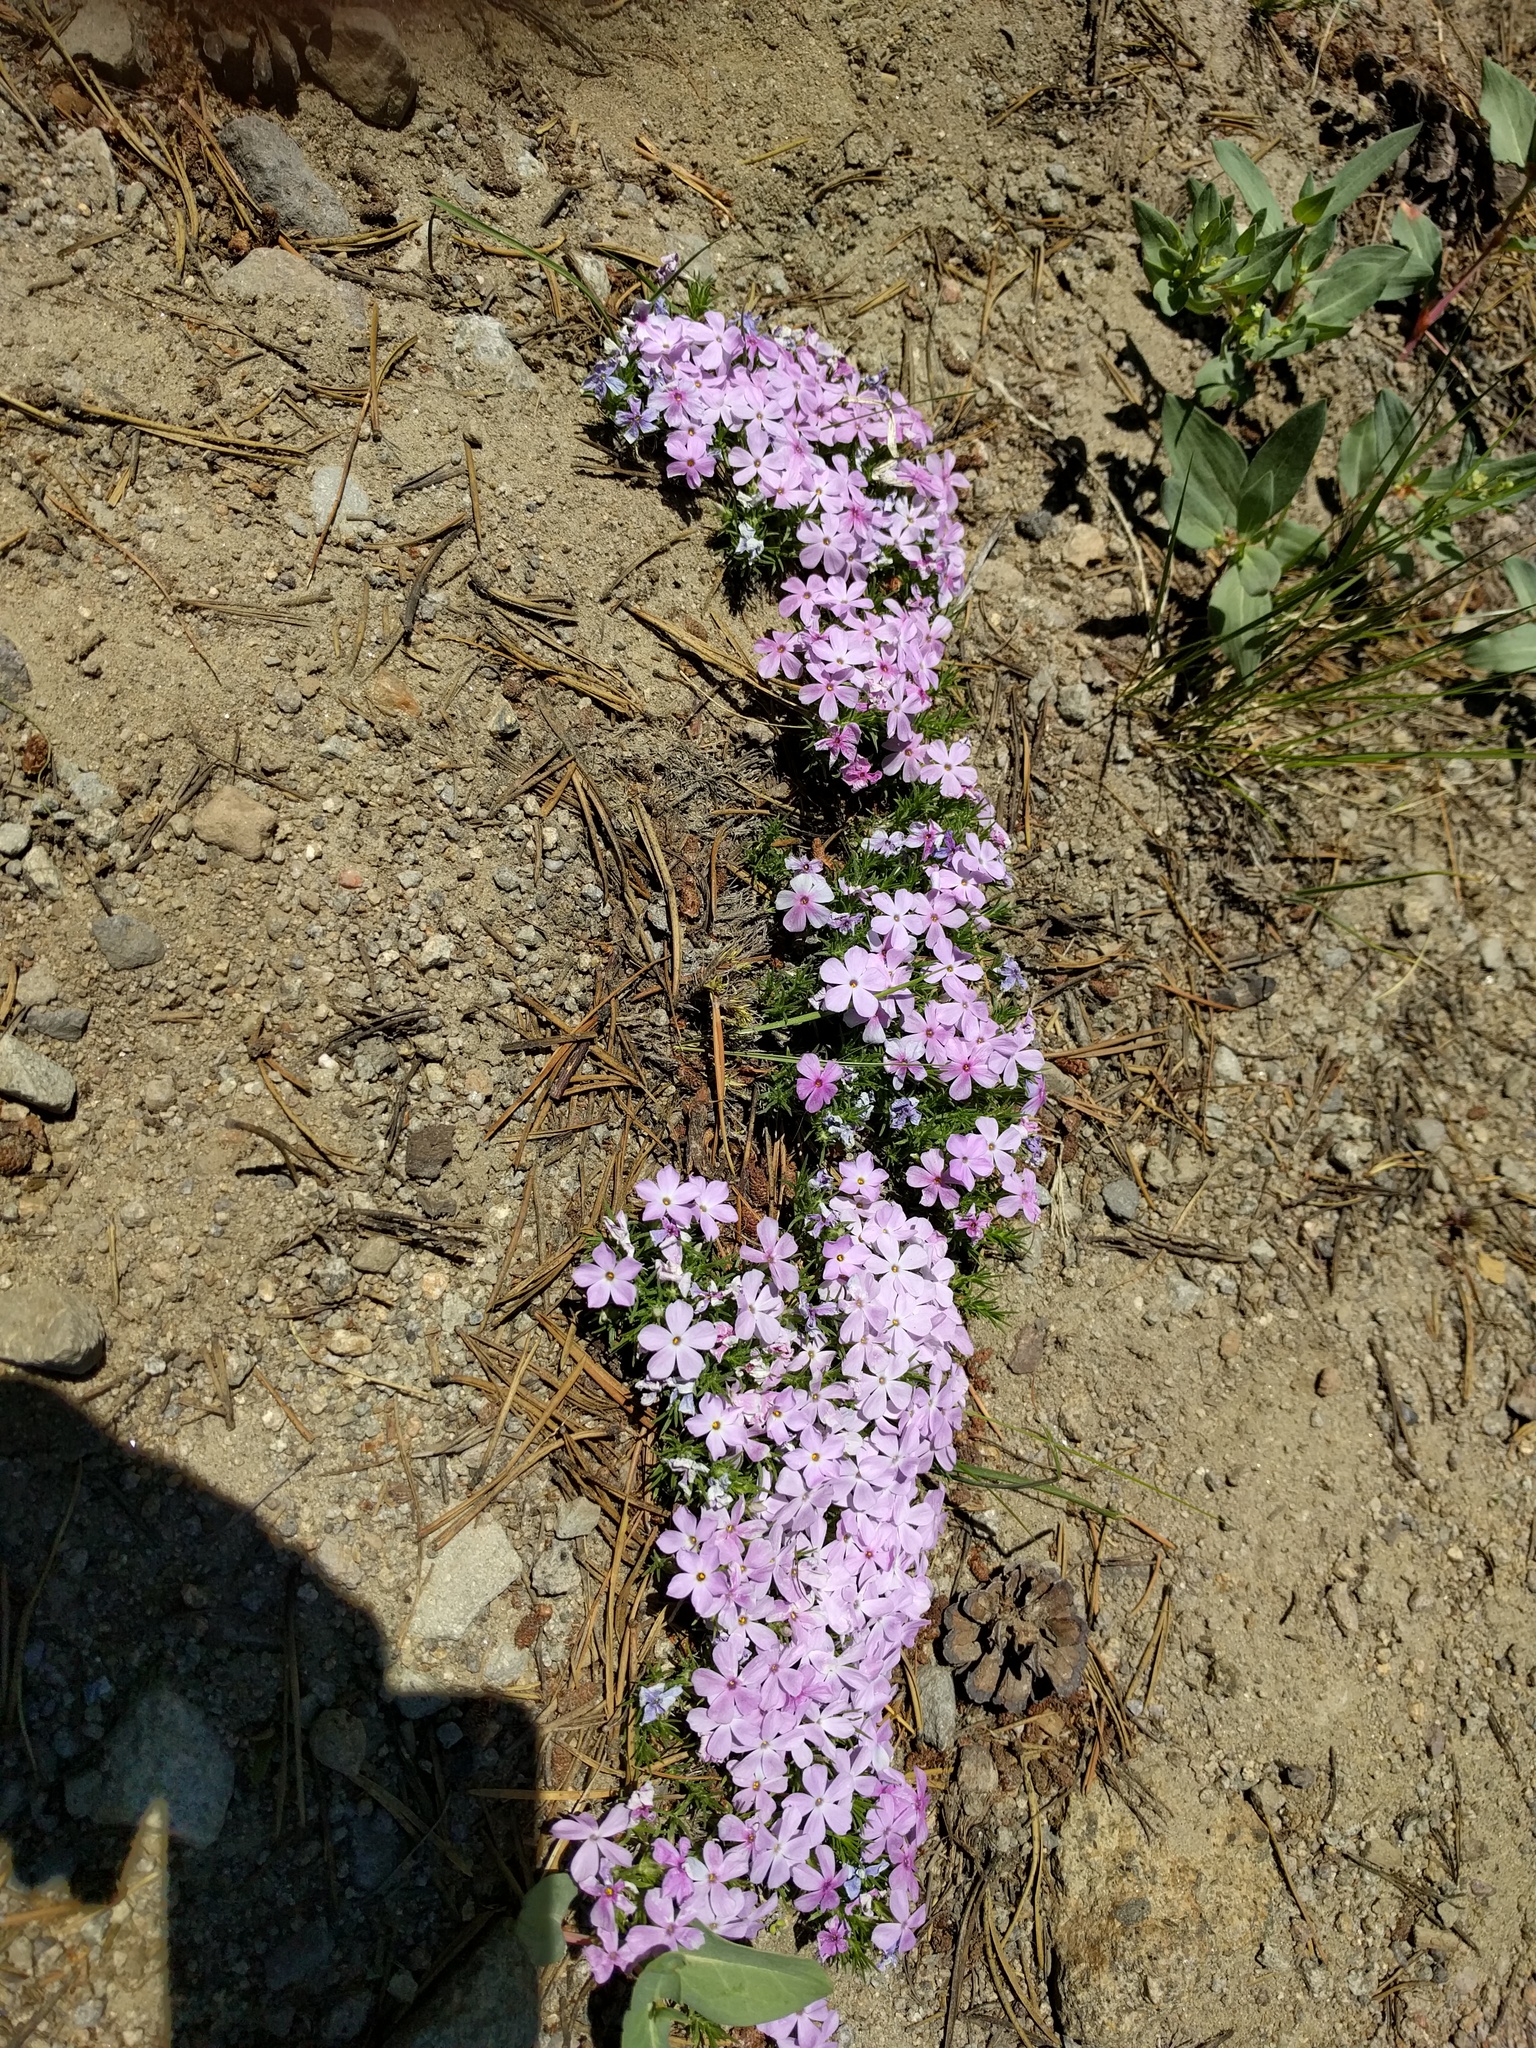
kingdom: Plantae
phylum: Tracheophyta
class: Magnoliopsida
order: Ericales
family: Polemoniaceae
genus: Phlox
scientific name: Phlox diffusa
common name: Mat phlox
